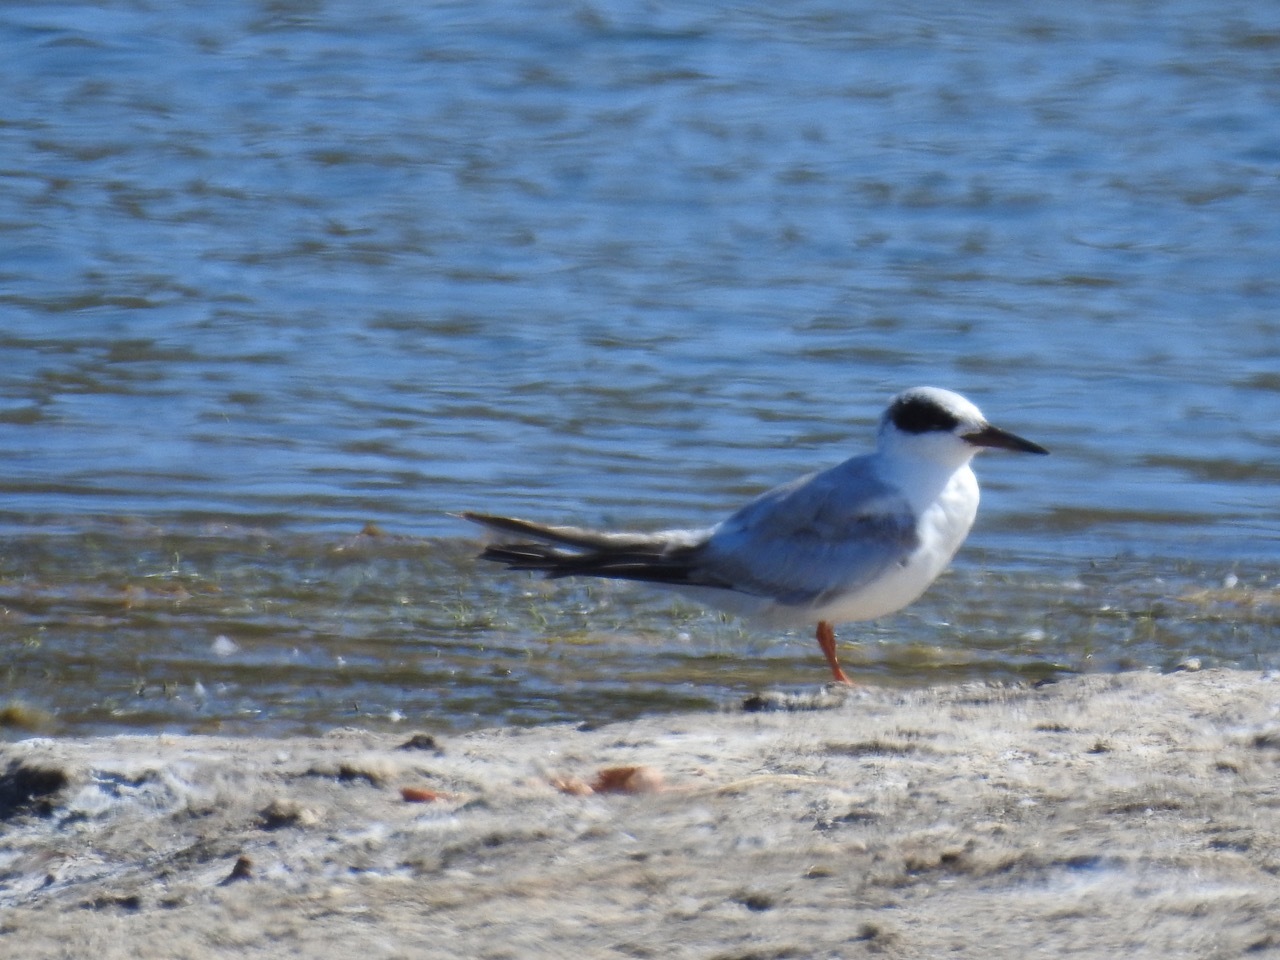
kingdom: Animalia
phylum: Chordata
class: Aves
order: Charadriiformes
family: Laridae
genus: Sterna
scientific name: Sterna forsteri
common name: Forster's tern
